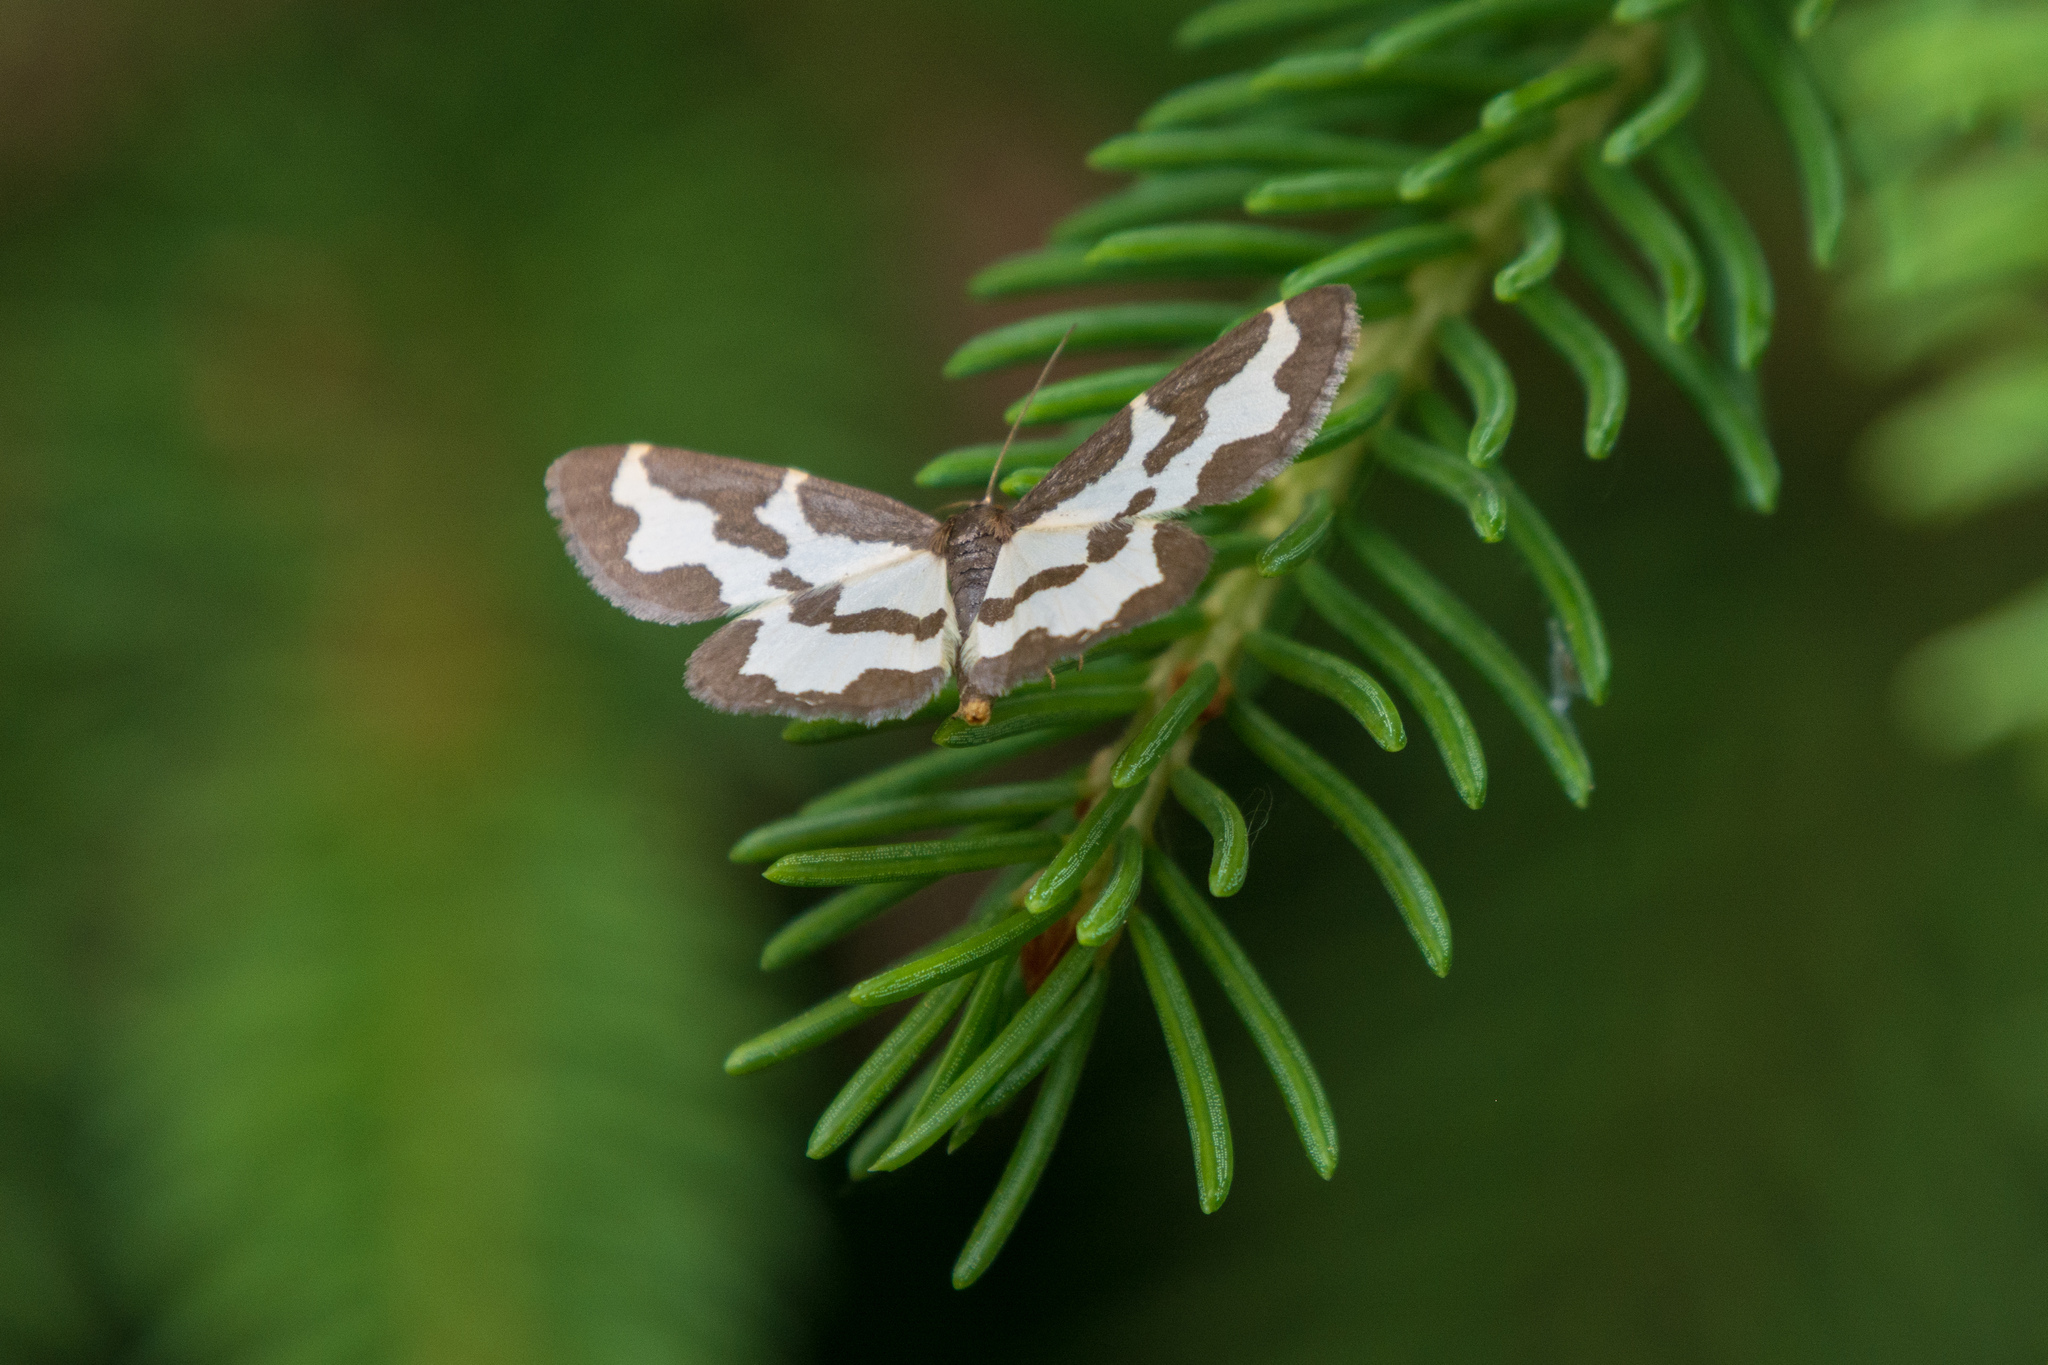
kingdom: Animalia
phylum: Arthropoda
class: Insecta
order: Lepidoptera
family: Geometridae
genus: Lomaspilis
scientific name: Lomaspilis marginata
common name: Clouded border
